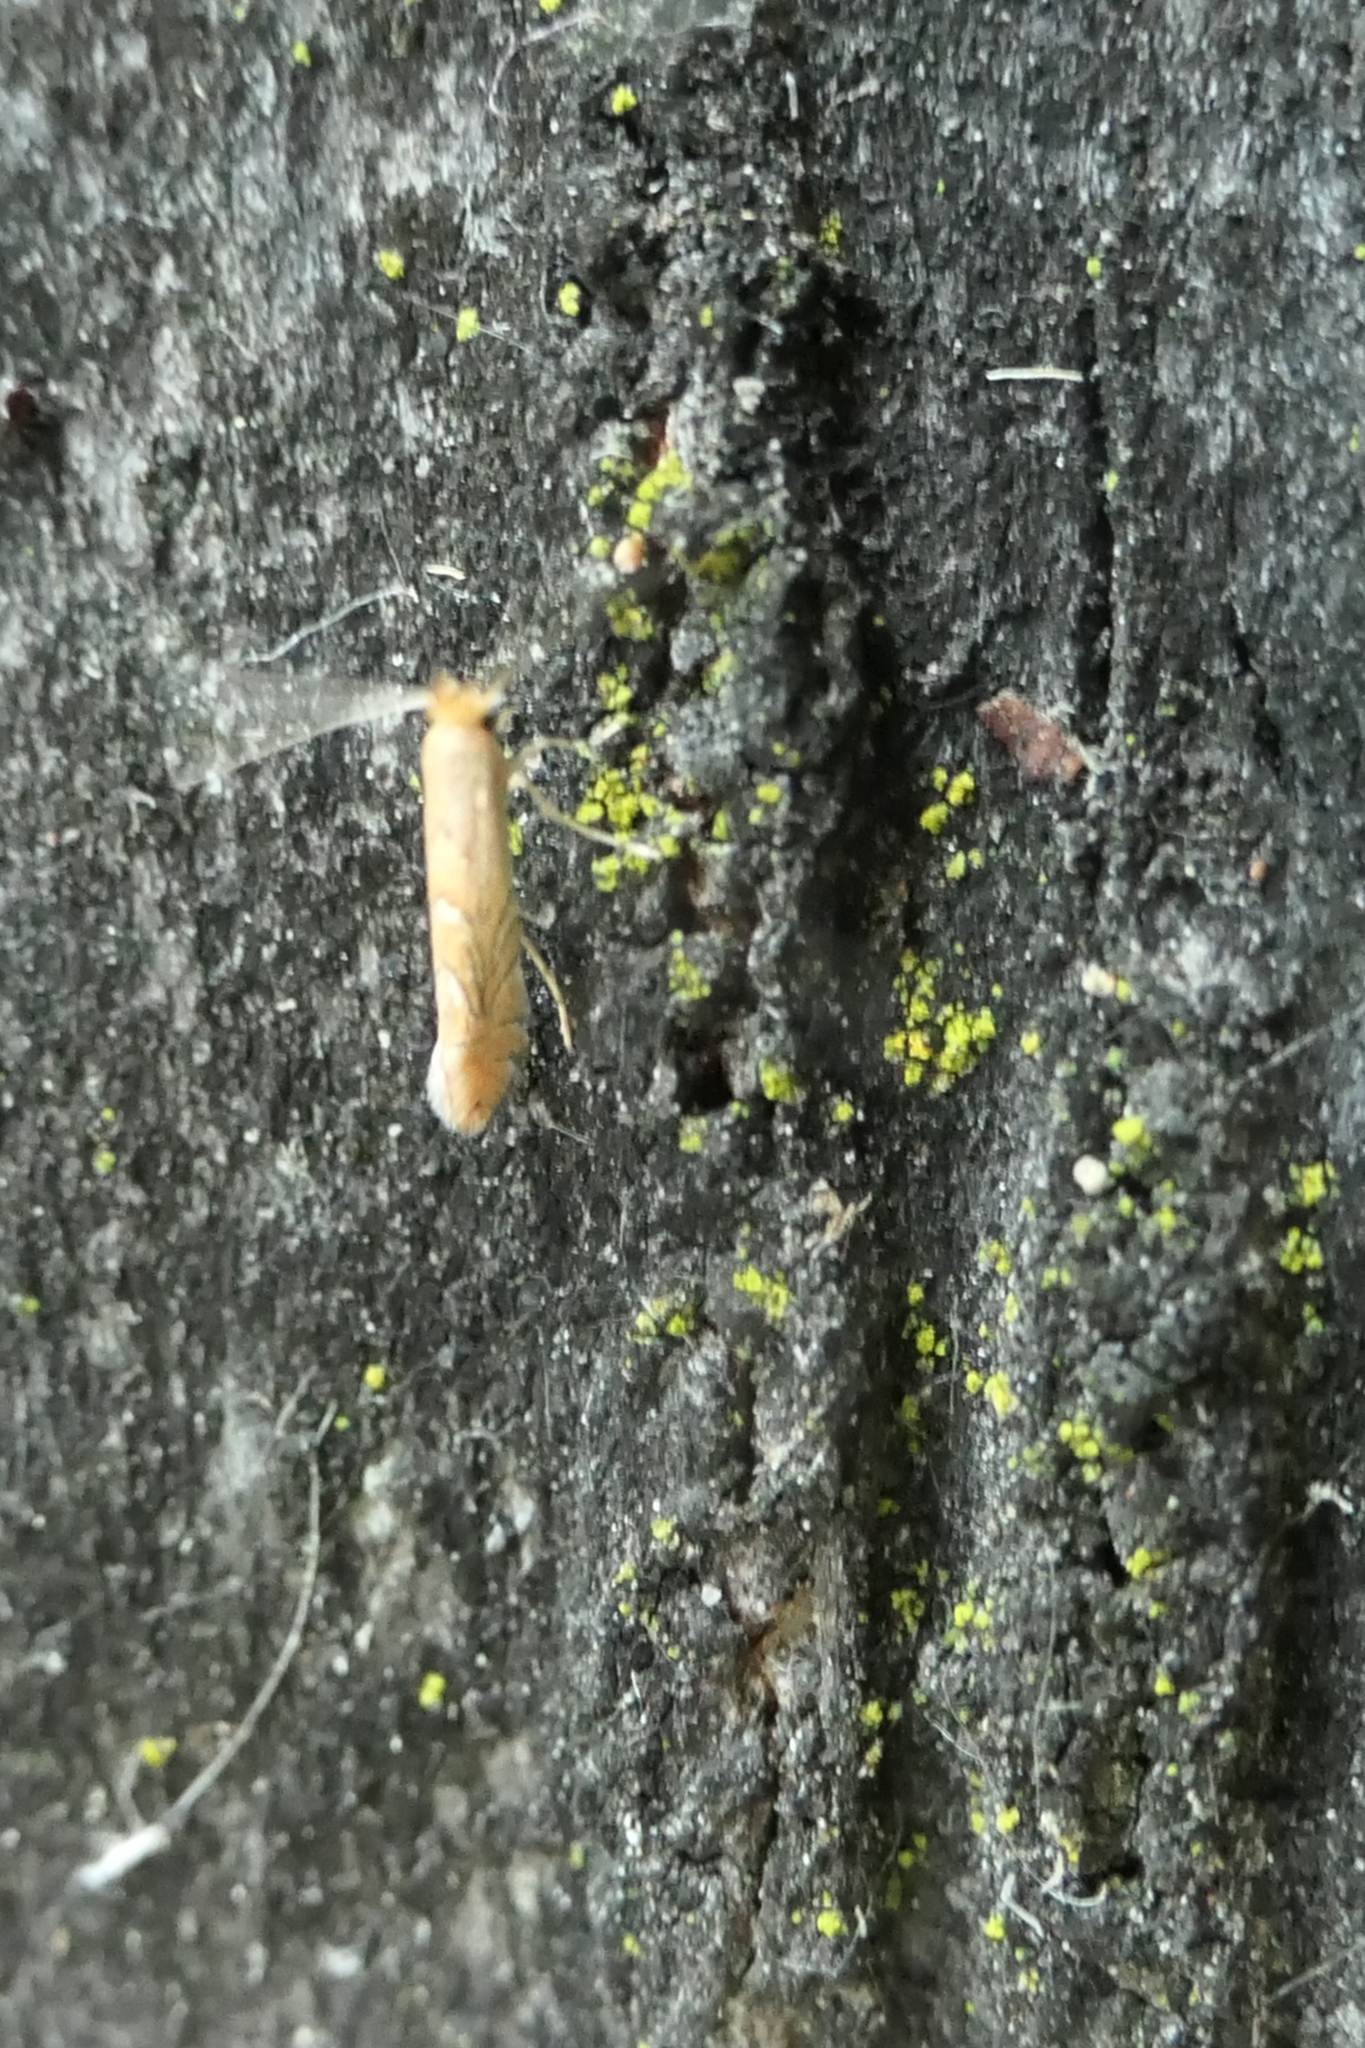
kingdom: Animalia
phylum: Arthropoda
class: Insecta
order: Lepidoptera
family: Gracillariidae
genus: Phyllonorycter
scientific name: Phyllonorycter messaniella
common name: Garden midget
